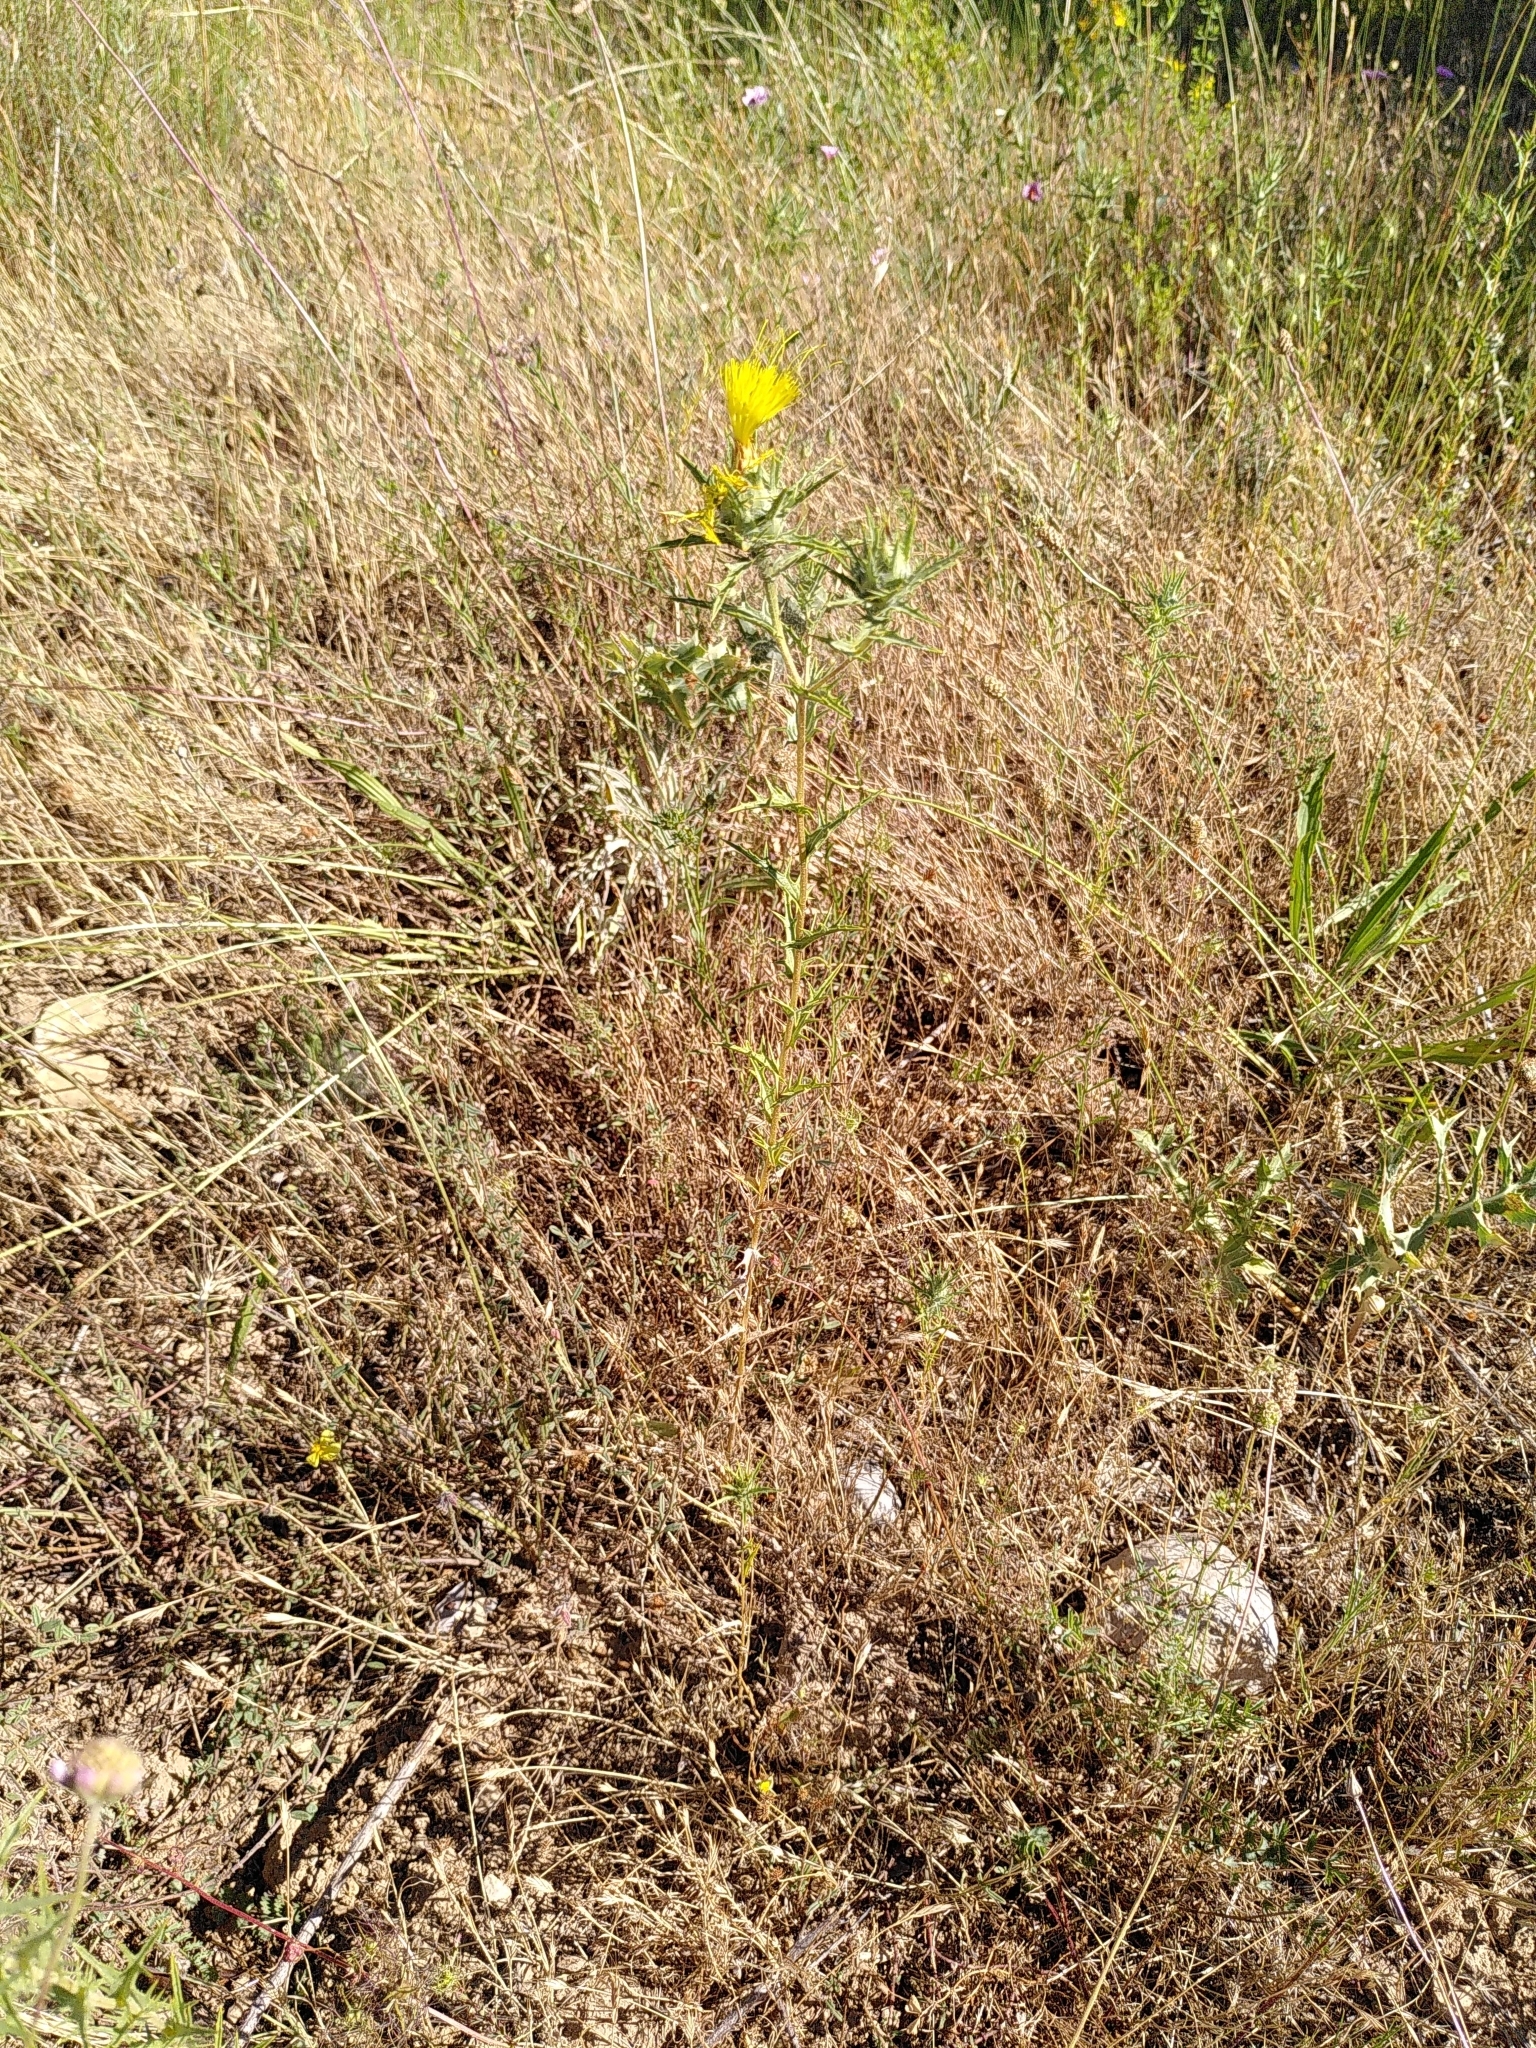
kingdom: Plantae
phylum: Tracheophyta
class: Magnoliopsida
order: Asterales
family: Asteraceae
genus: Carthamus
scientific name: Carthamus lanatus
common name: Downy safflower
